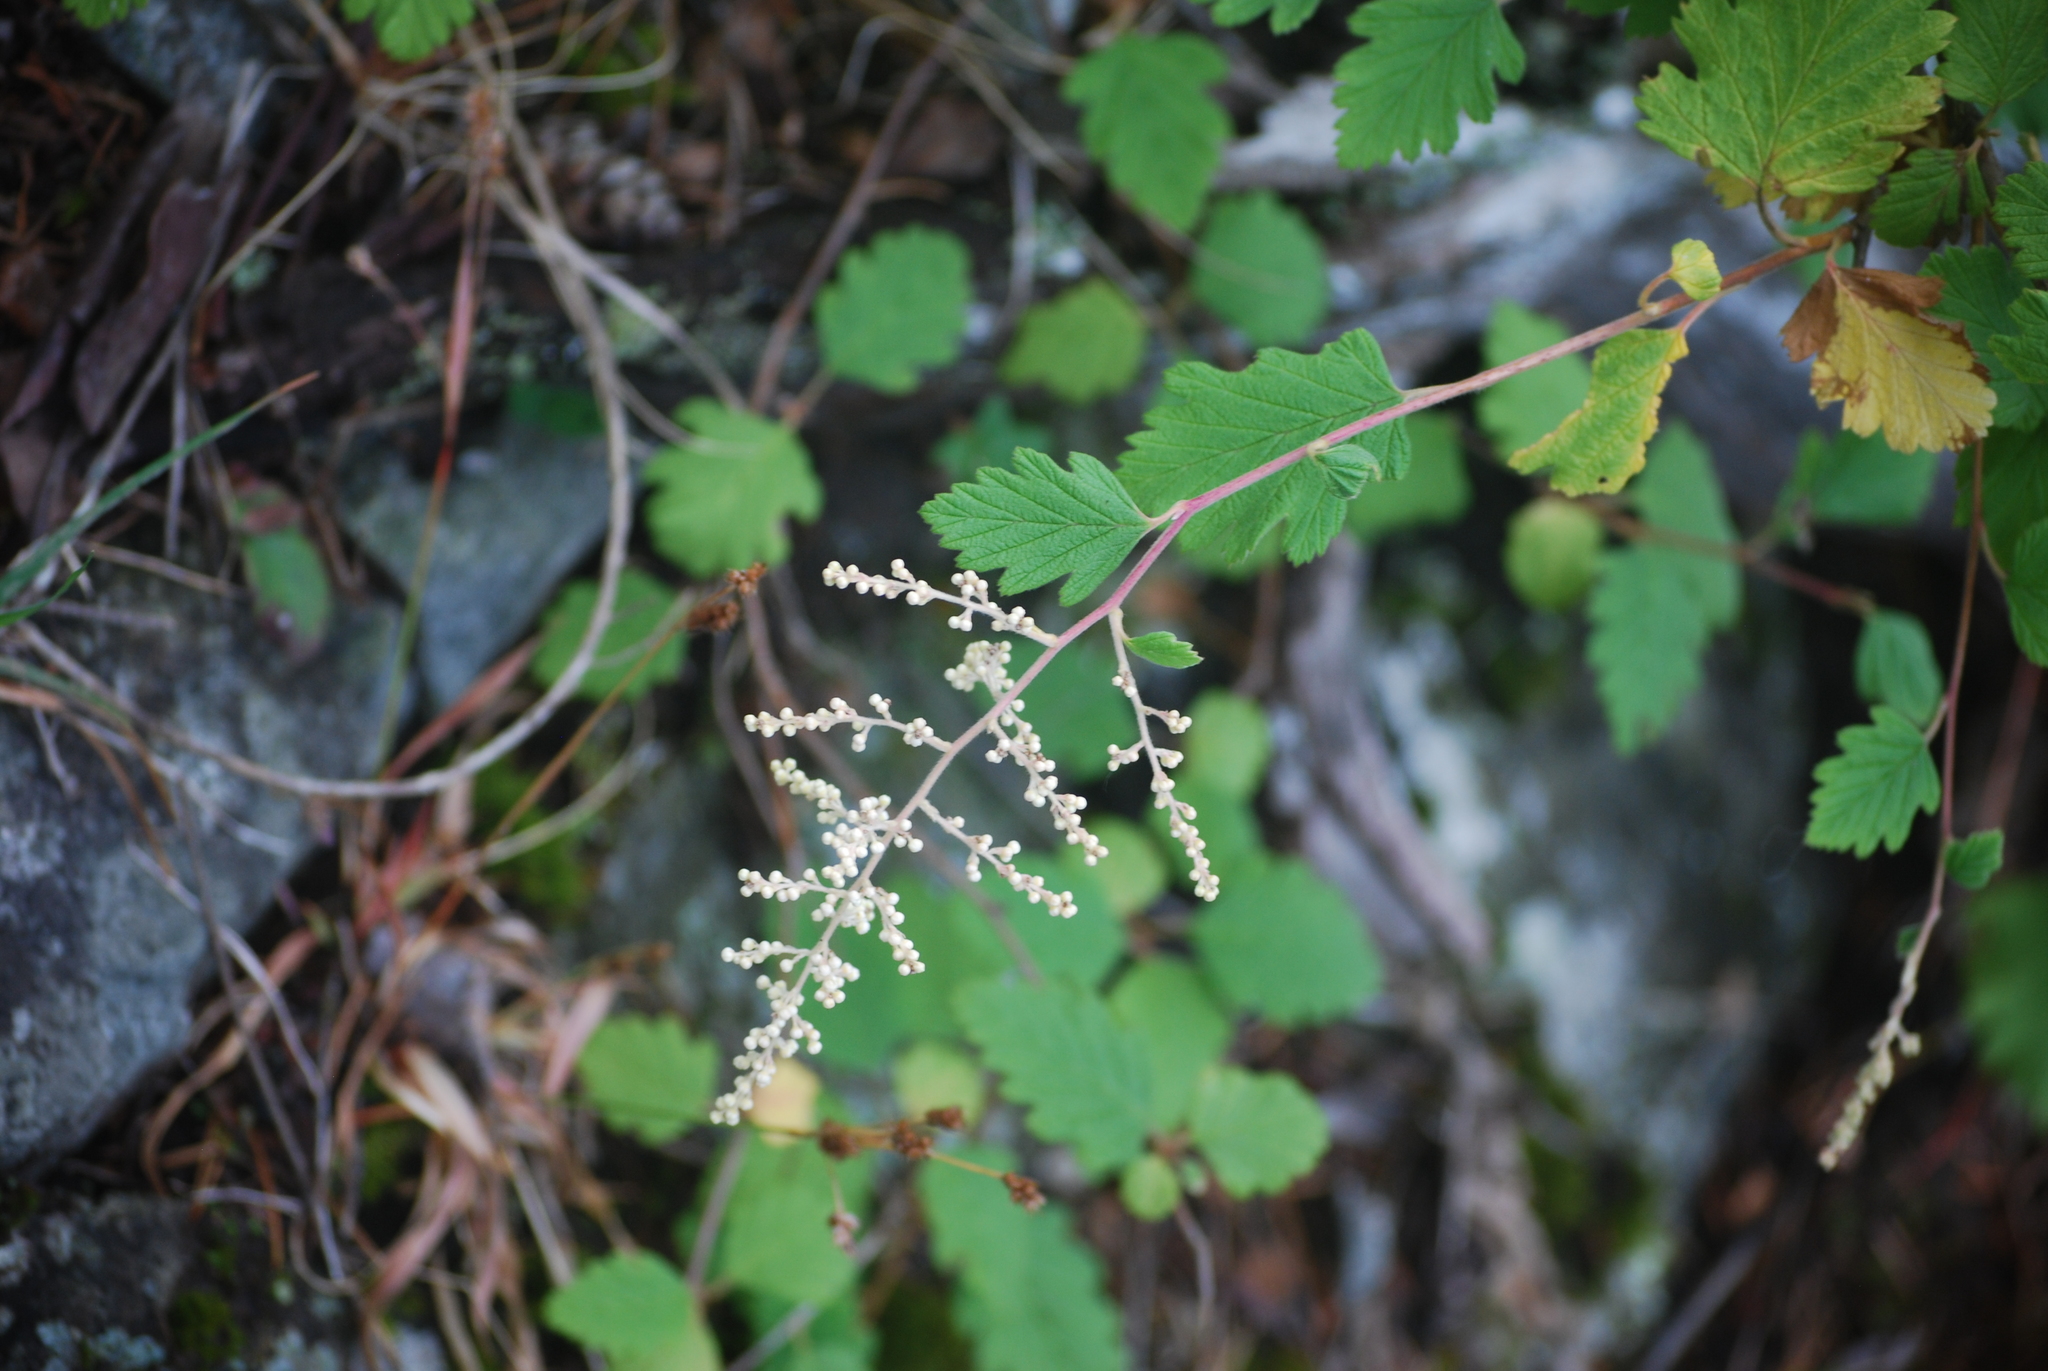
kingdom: Plantae
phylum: Tracheophyta
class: Magnoliopsida
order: Rosales
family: Rosaceae
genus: Holodiscus
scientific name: Holodiscus discolor
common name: Oceanspray
